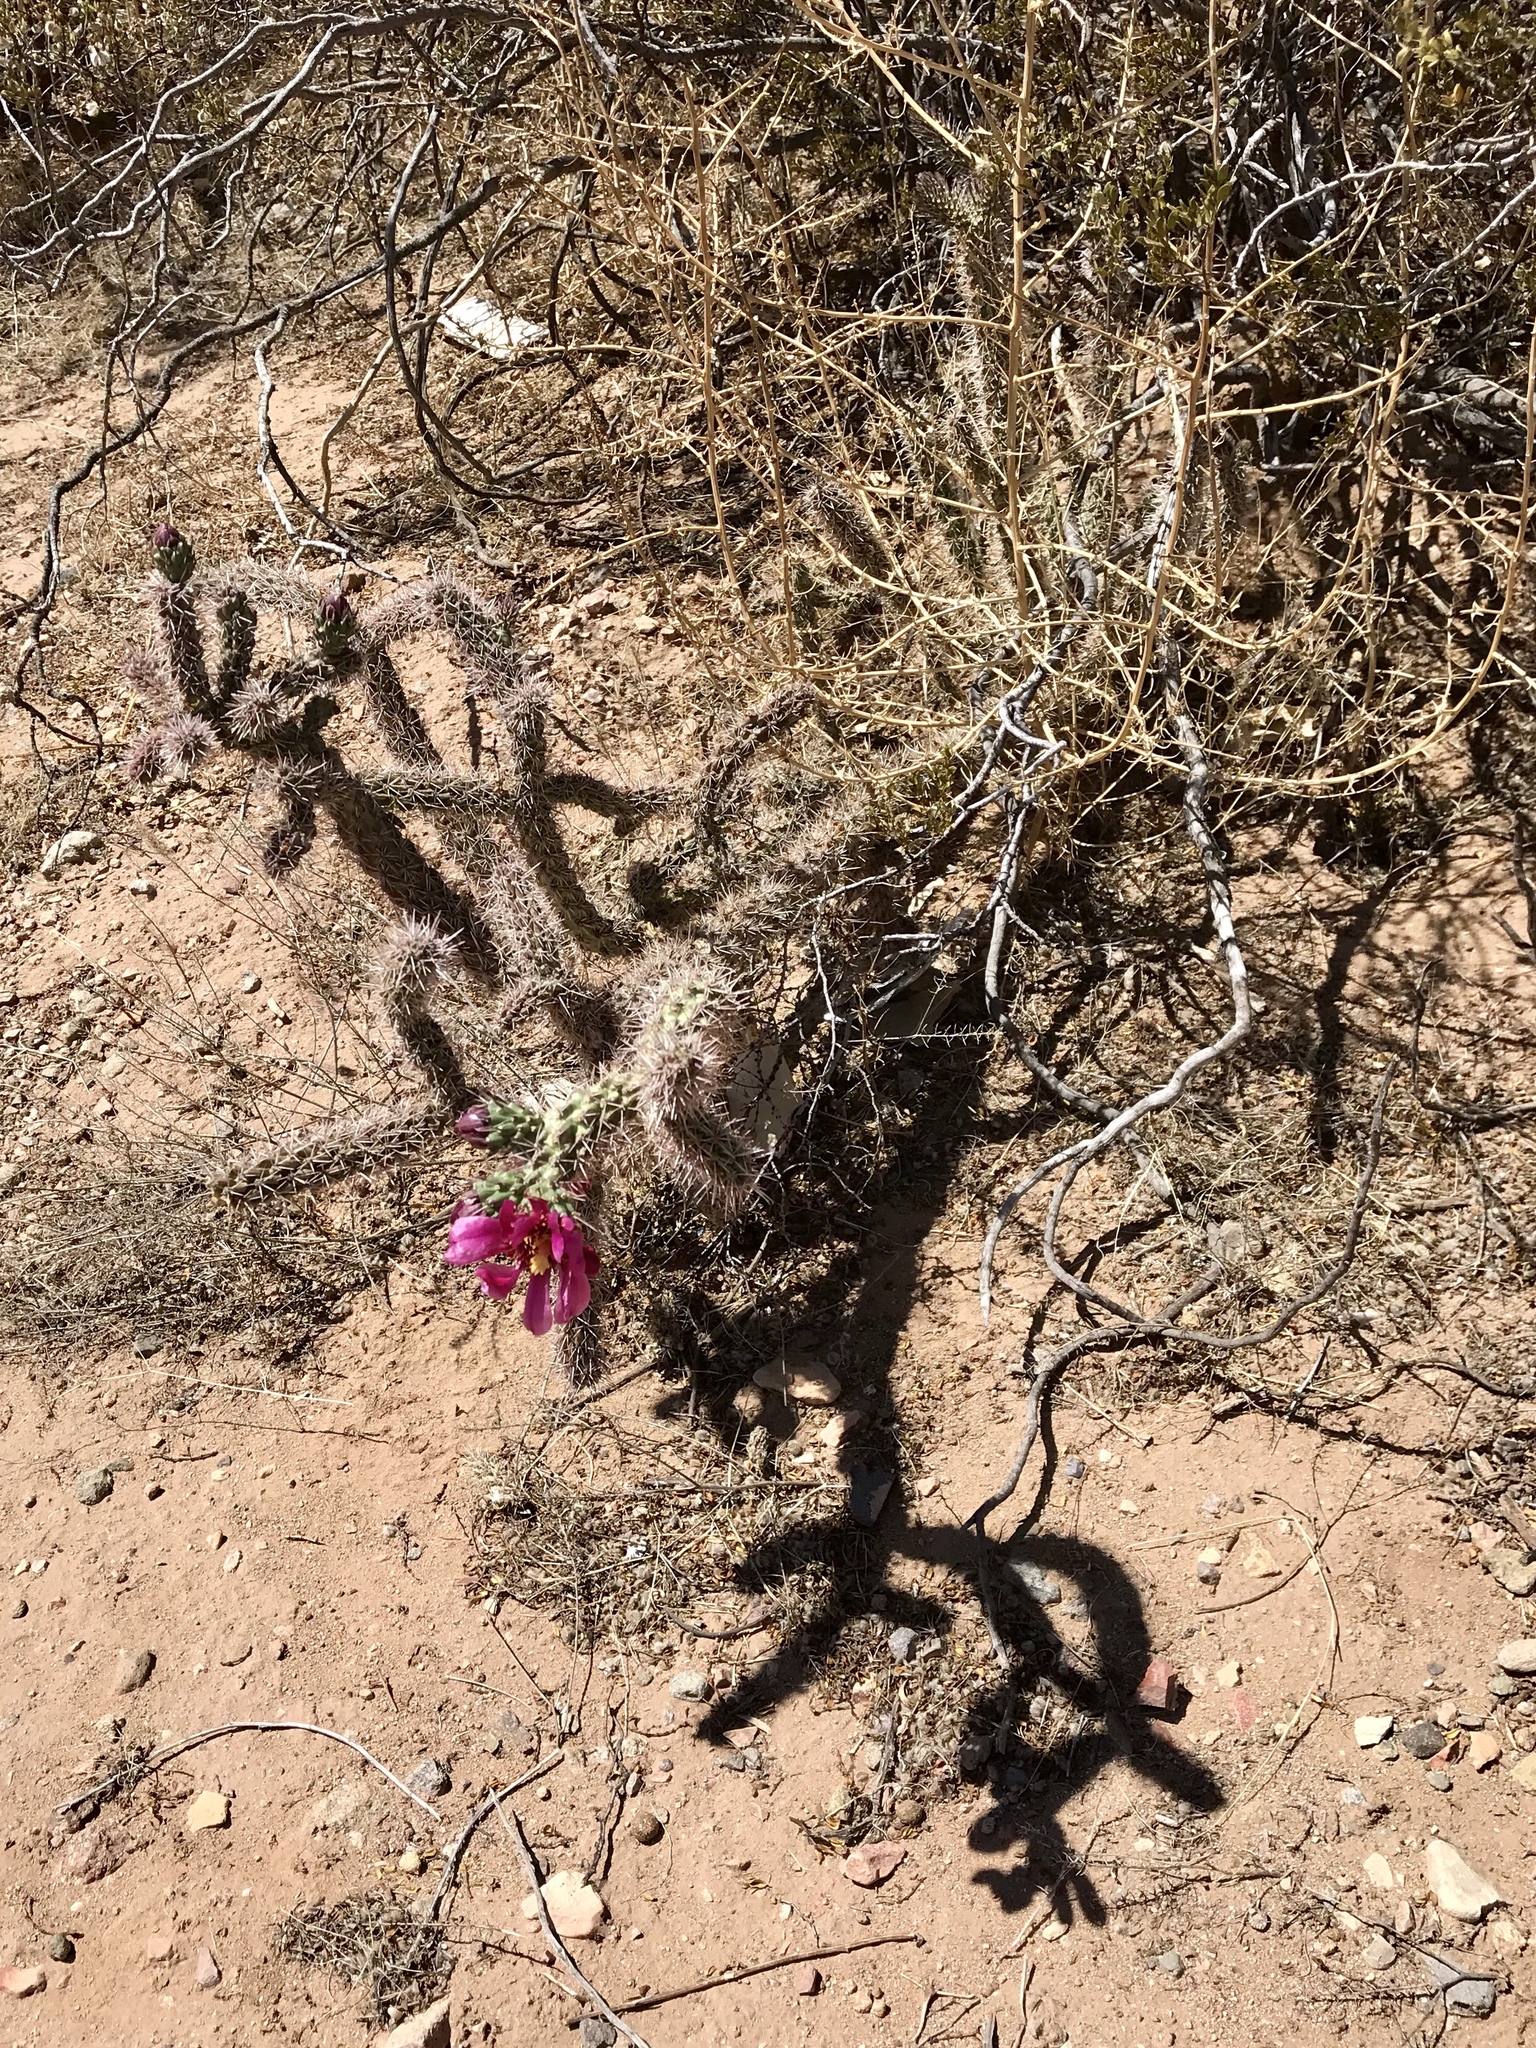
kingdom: Plantae
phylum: Tracheophyta
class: Magnoliopsida
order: Caryophyllales
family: Cactaceae
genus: Cylindropuntia
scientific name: Cylindropuntia imbricata
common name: Candelabrum cactus
